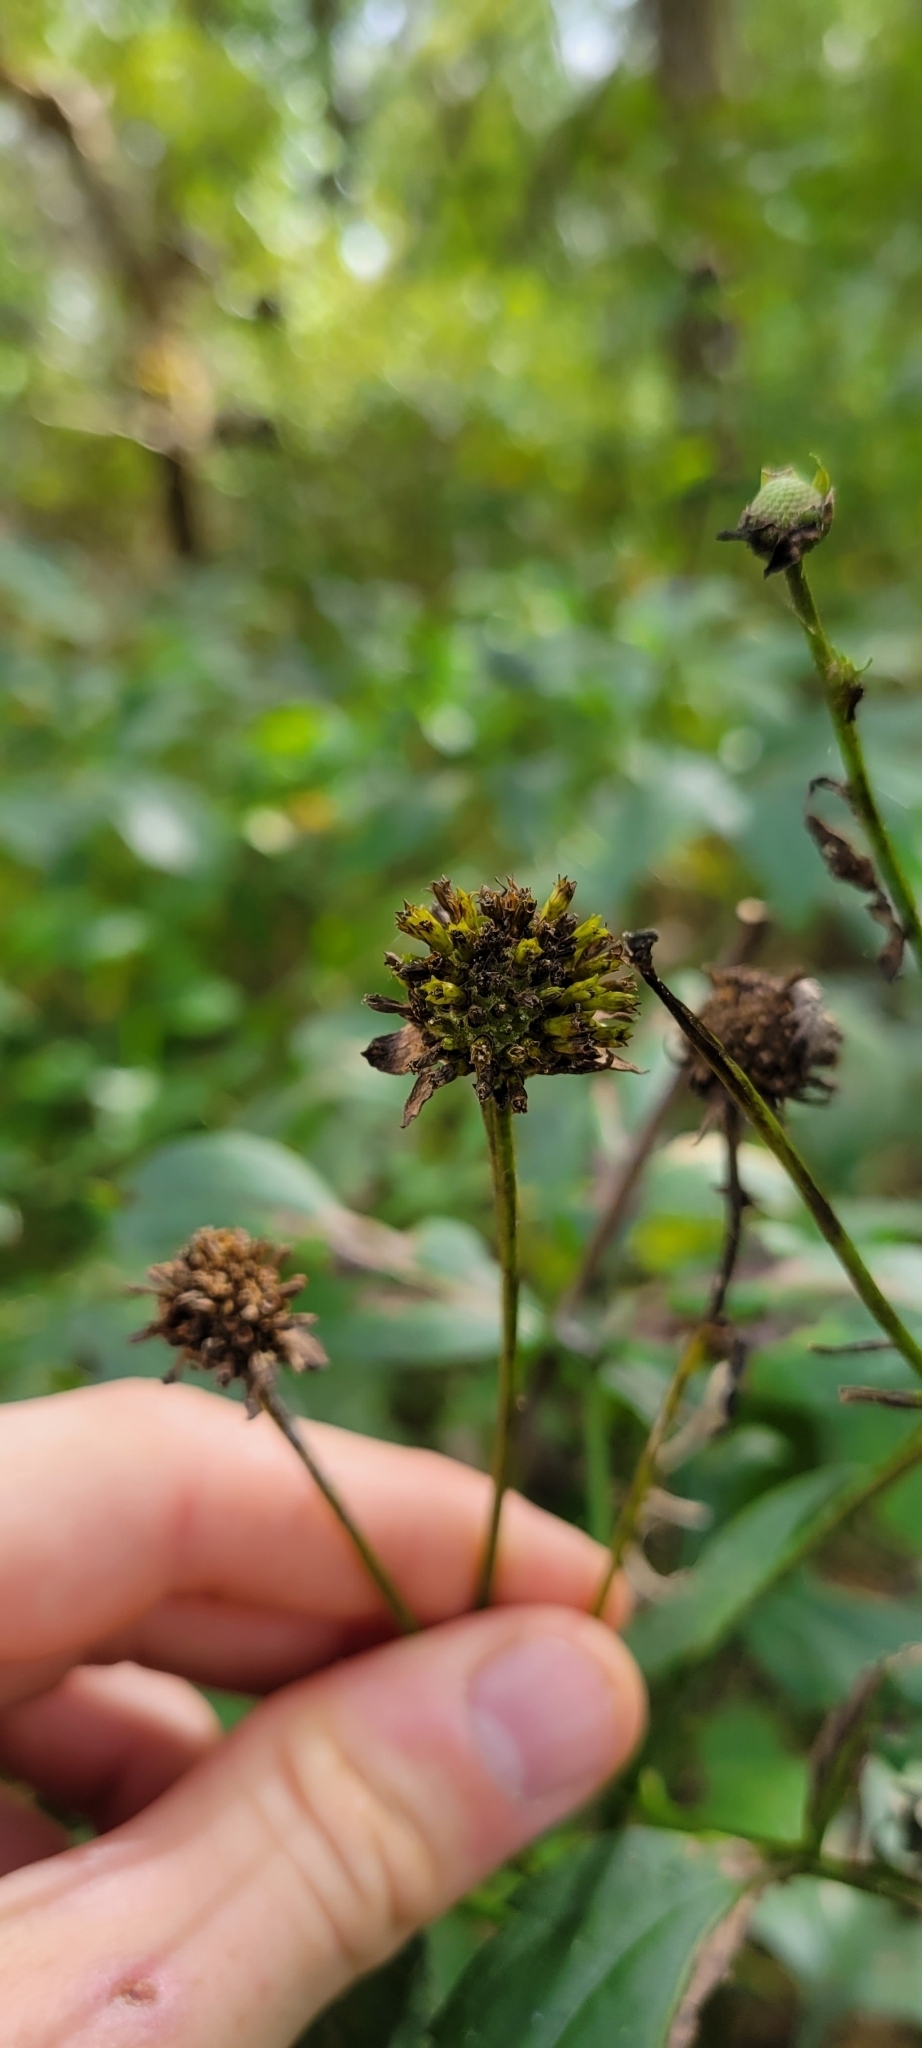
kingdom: Plantae
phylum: Tracheophyta
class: Magnoliopsida
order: Asterales
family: Asteraceae
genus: Rudbeckia
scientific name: Rudbeckia laciniata
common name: Coneflower
